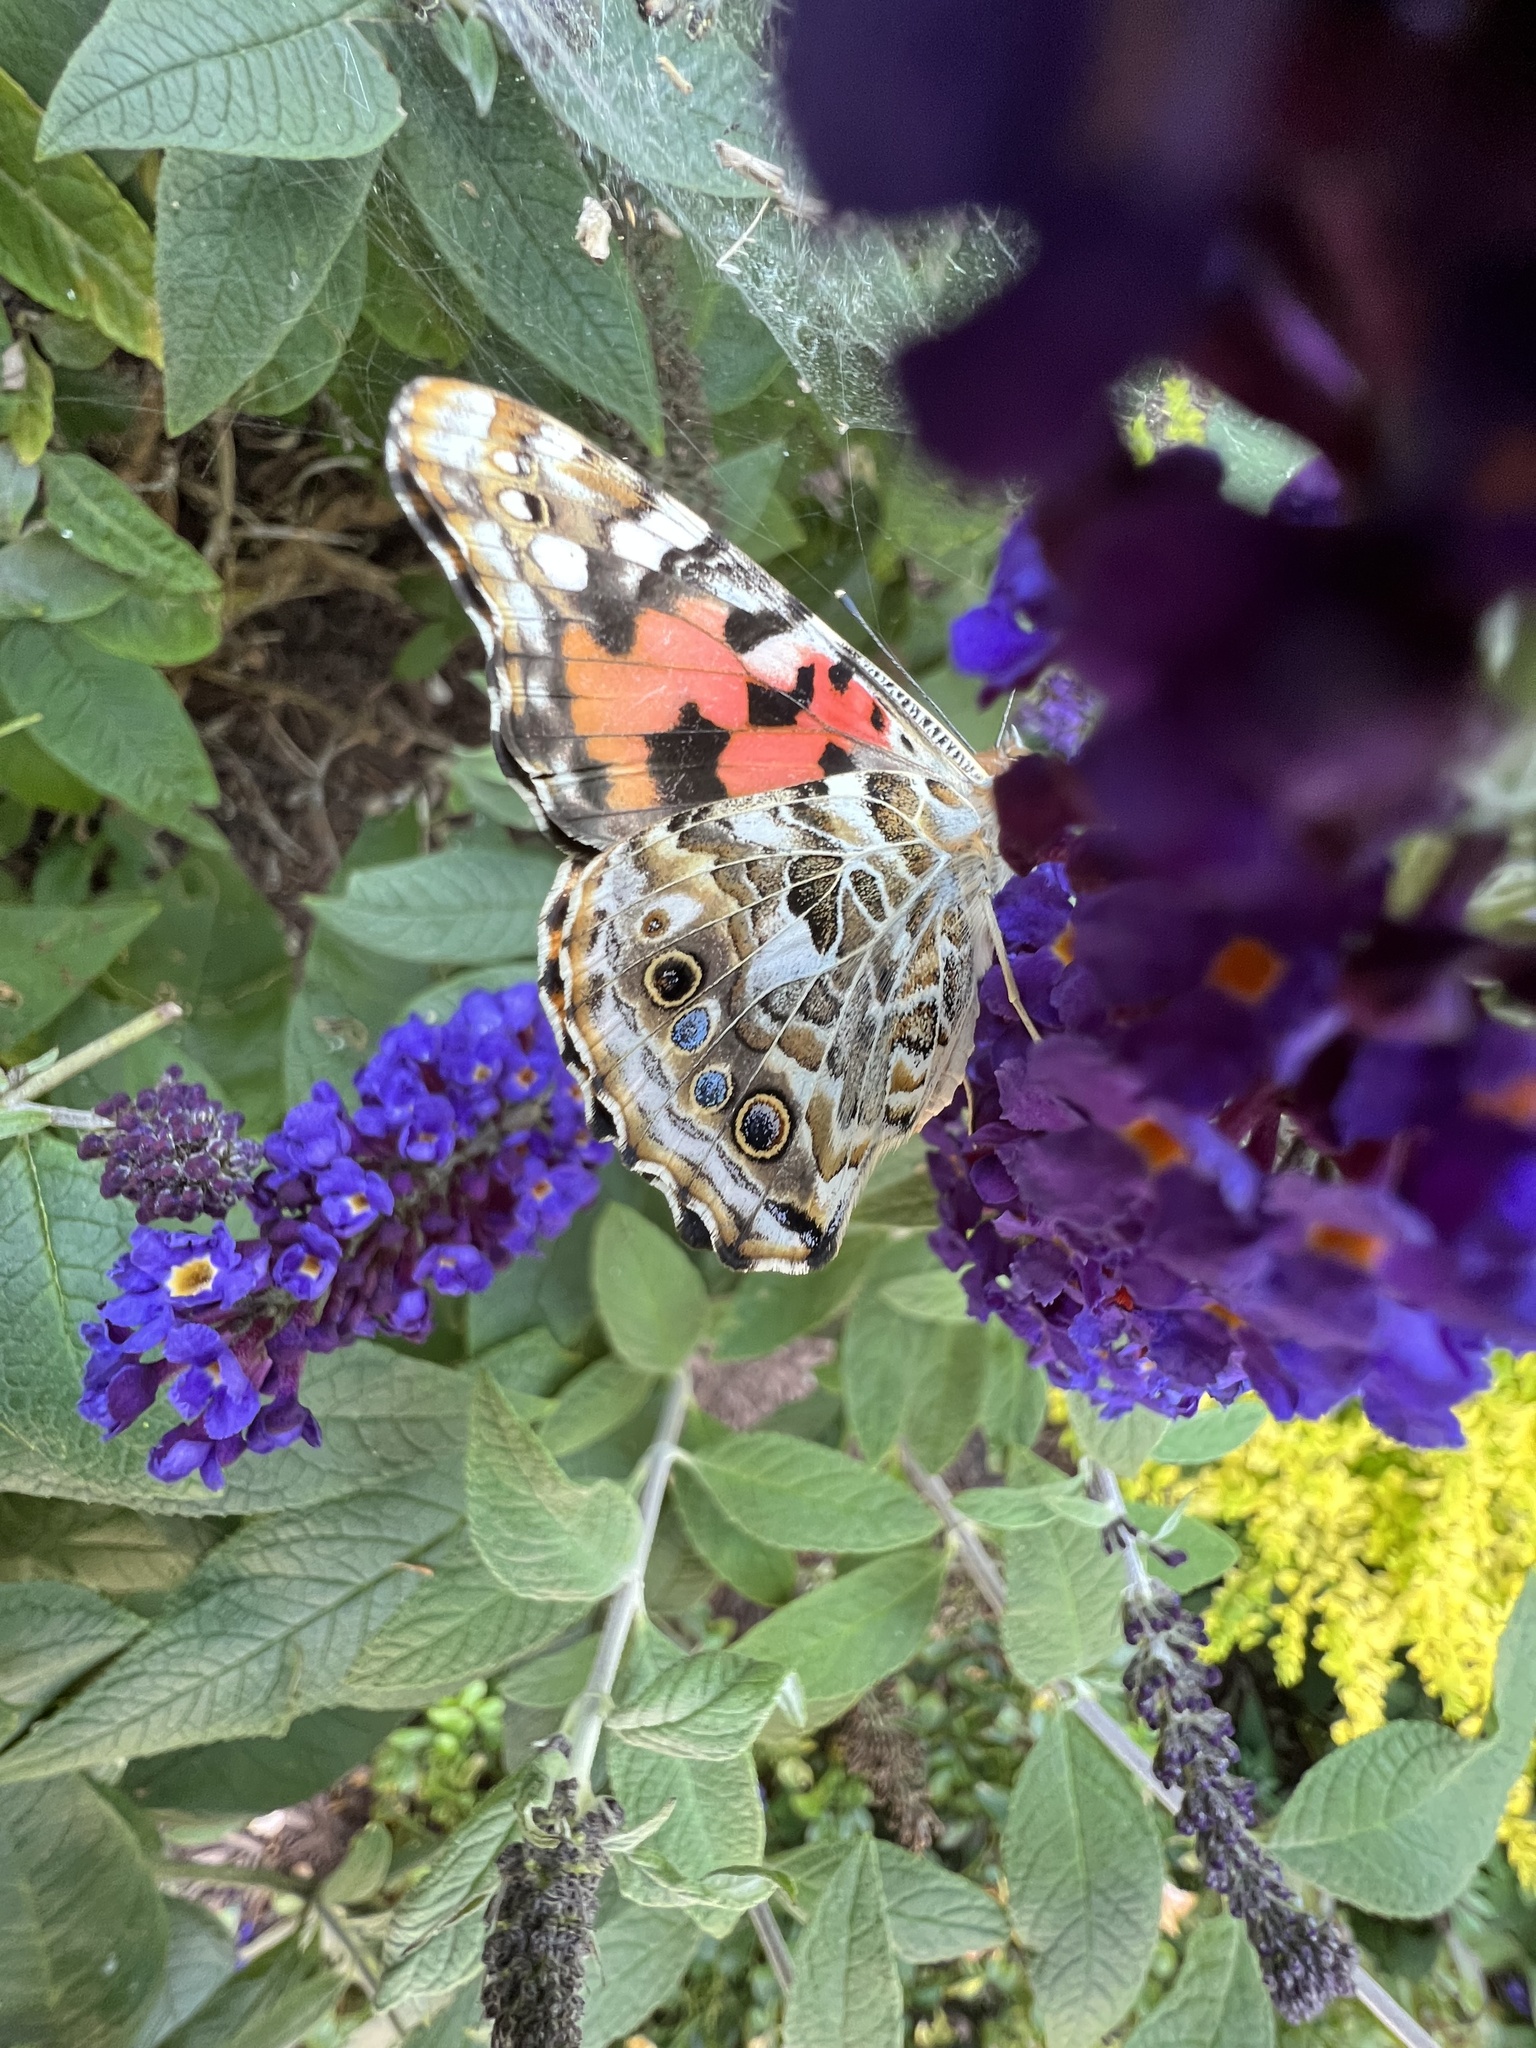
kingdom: Animalia
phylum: Arthropoda
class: Insecta
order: Lepidoptera
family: Nymphalidae
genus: Vanessa
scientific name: Vanessa cardui
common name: Painted lady
